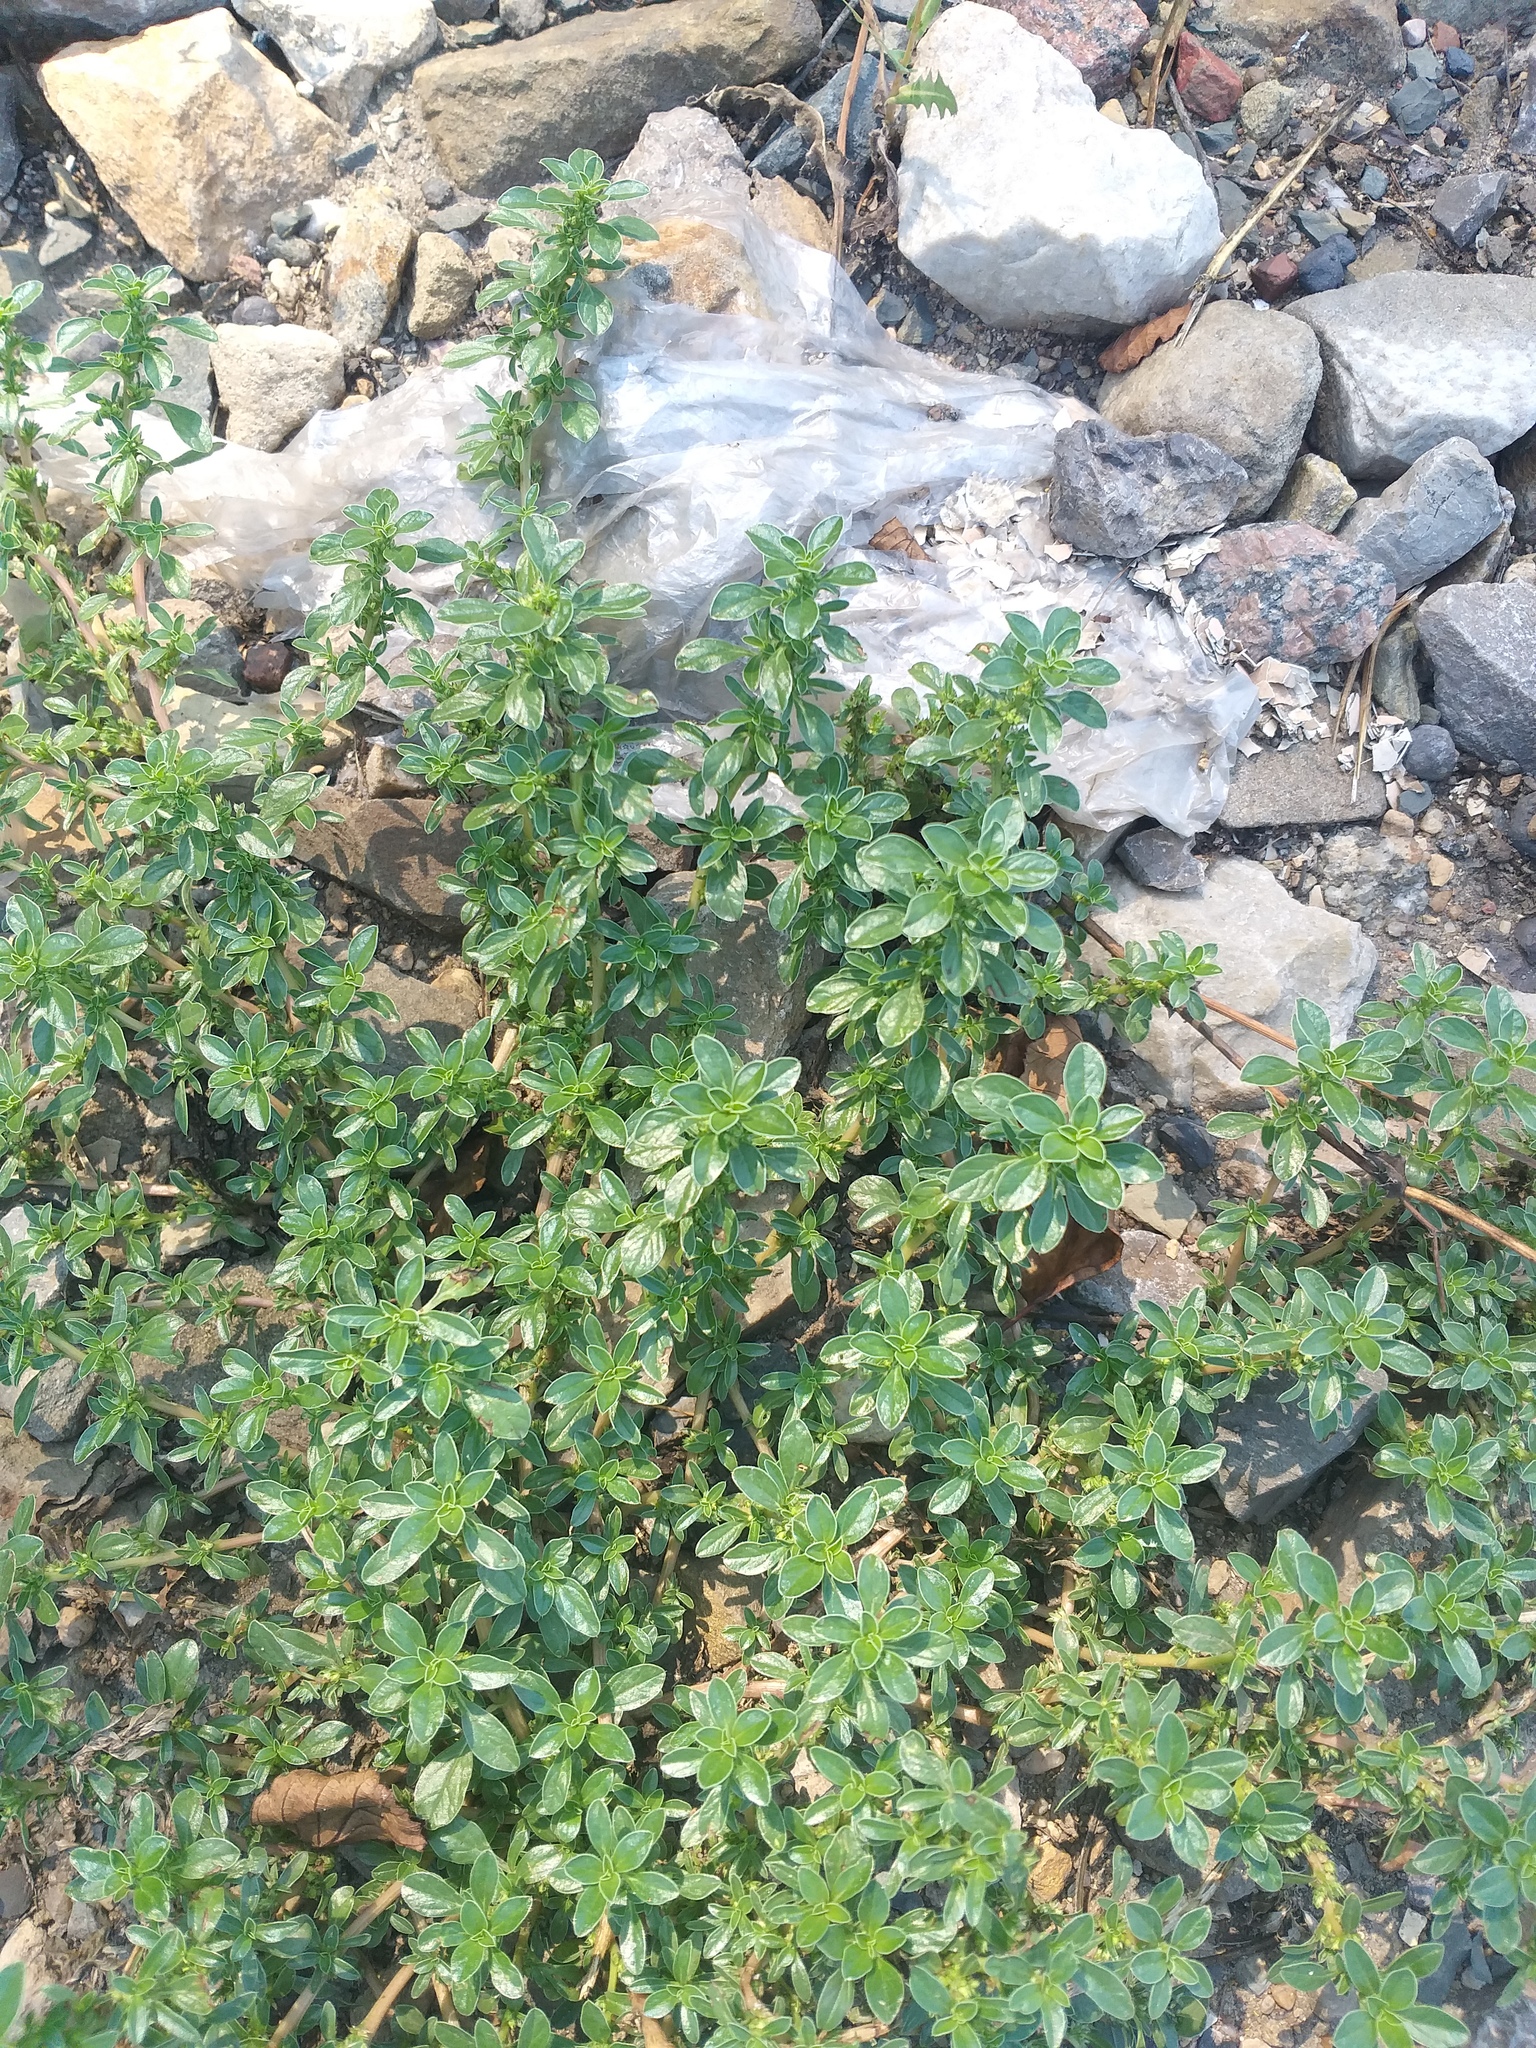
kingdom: Plantae
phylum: Tracheophyta
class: Magnoliopsida
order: Caryophyllales
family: Amaranthaceae
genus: Amaranthus
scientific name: Amaranthus blitoides
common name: Prostrate pigweed
